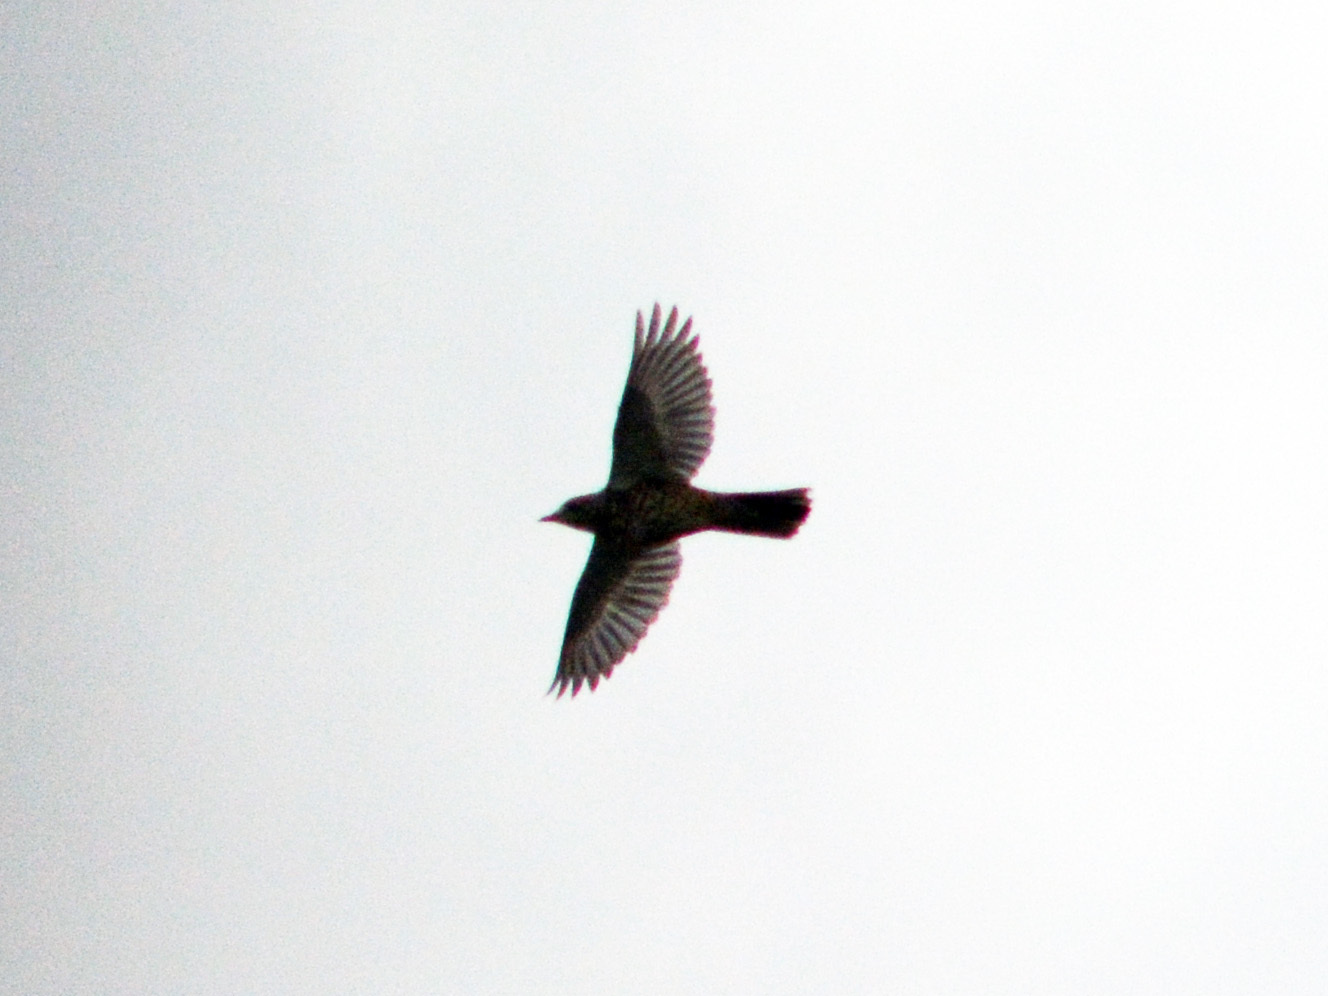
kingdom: Animalia
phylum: Chordata
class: Aves
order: Passeriformes
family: Turdidae
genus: Turdus
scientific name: Turdus viscivorus
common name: Mistle thrush
